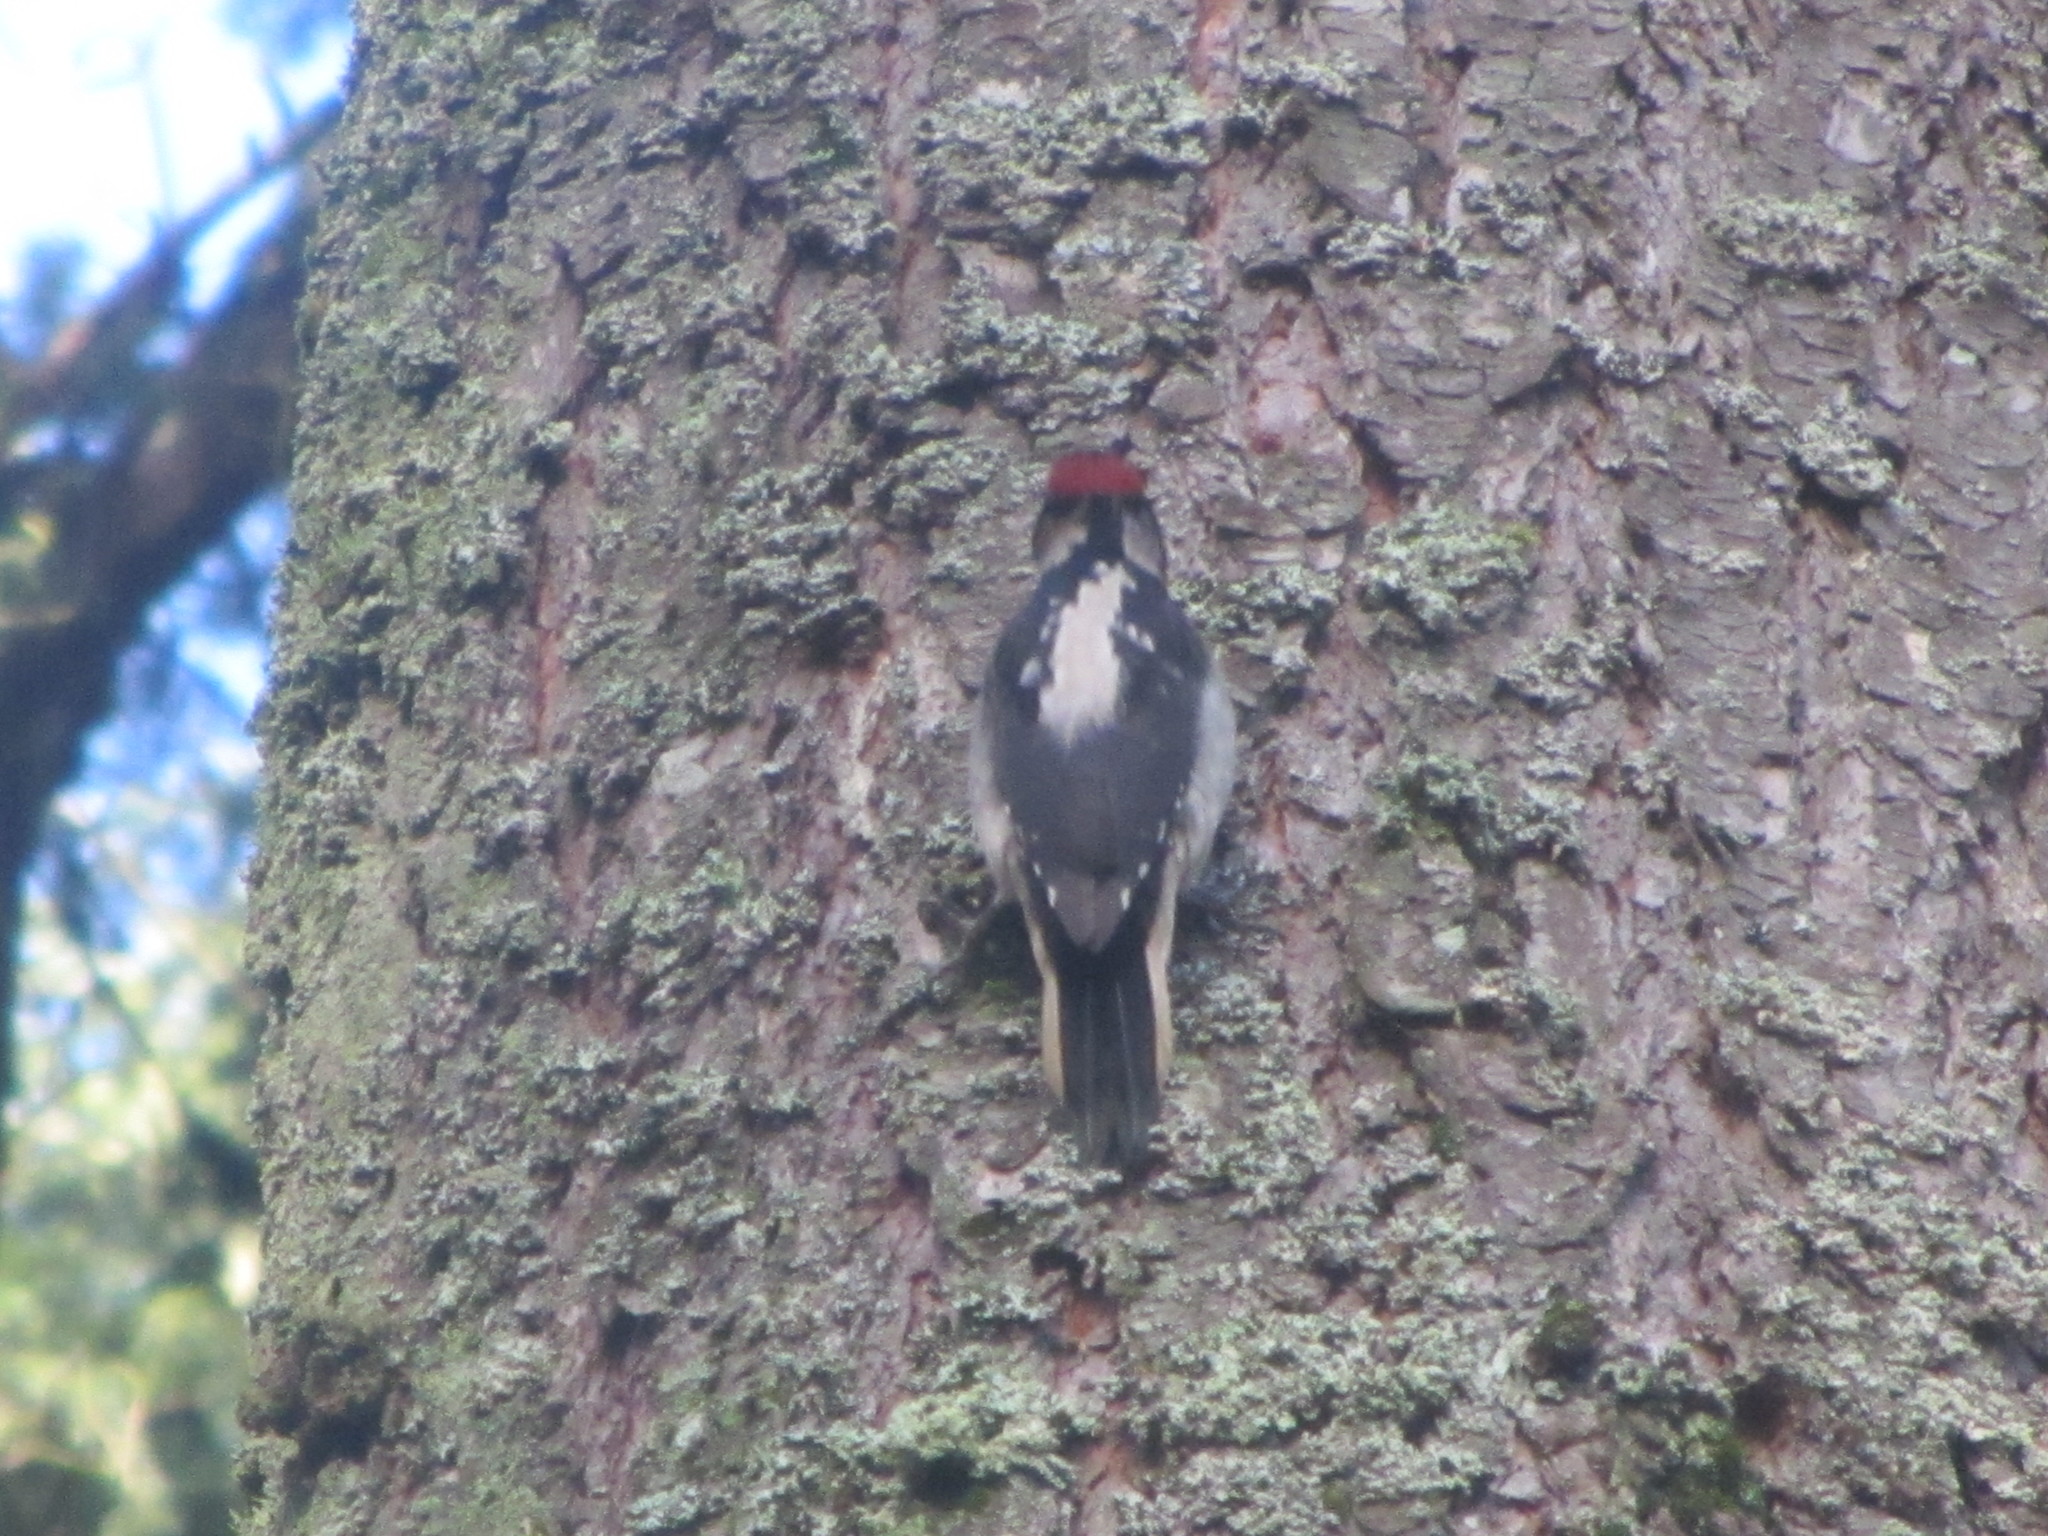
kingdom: Animalia
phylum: Chordata
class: Aves
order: Piciformes
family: Picidae
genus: Leuconotopicus
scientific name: Leuconotopicus villosus
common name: Hairy woodpecker
